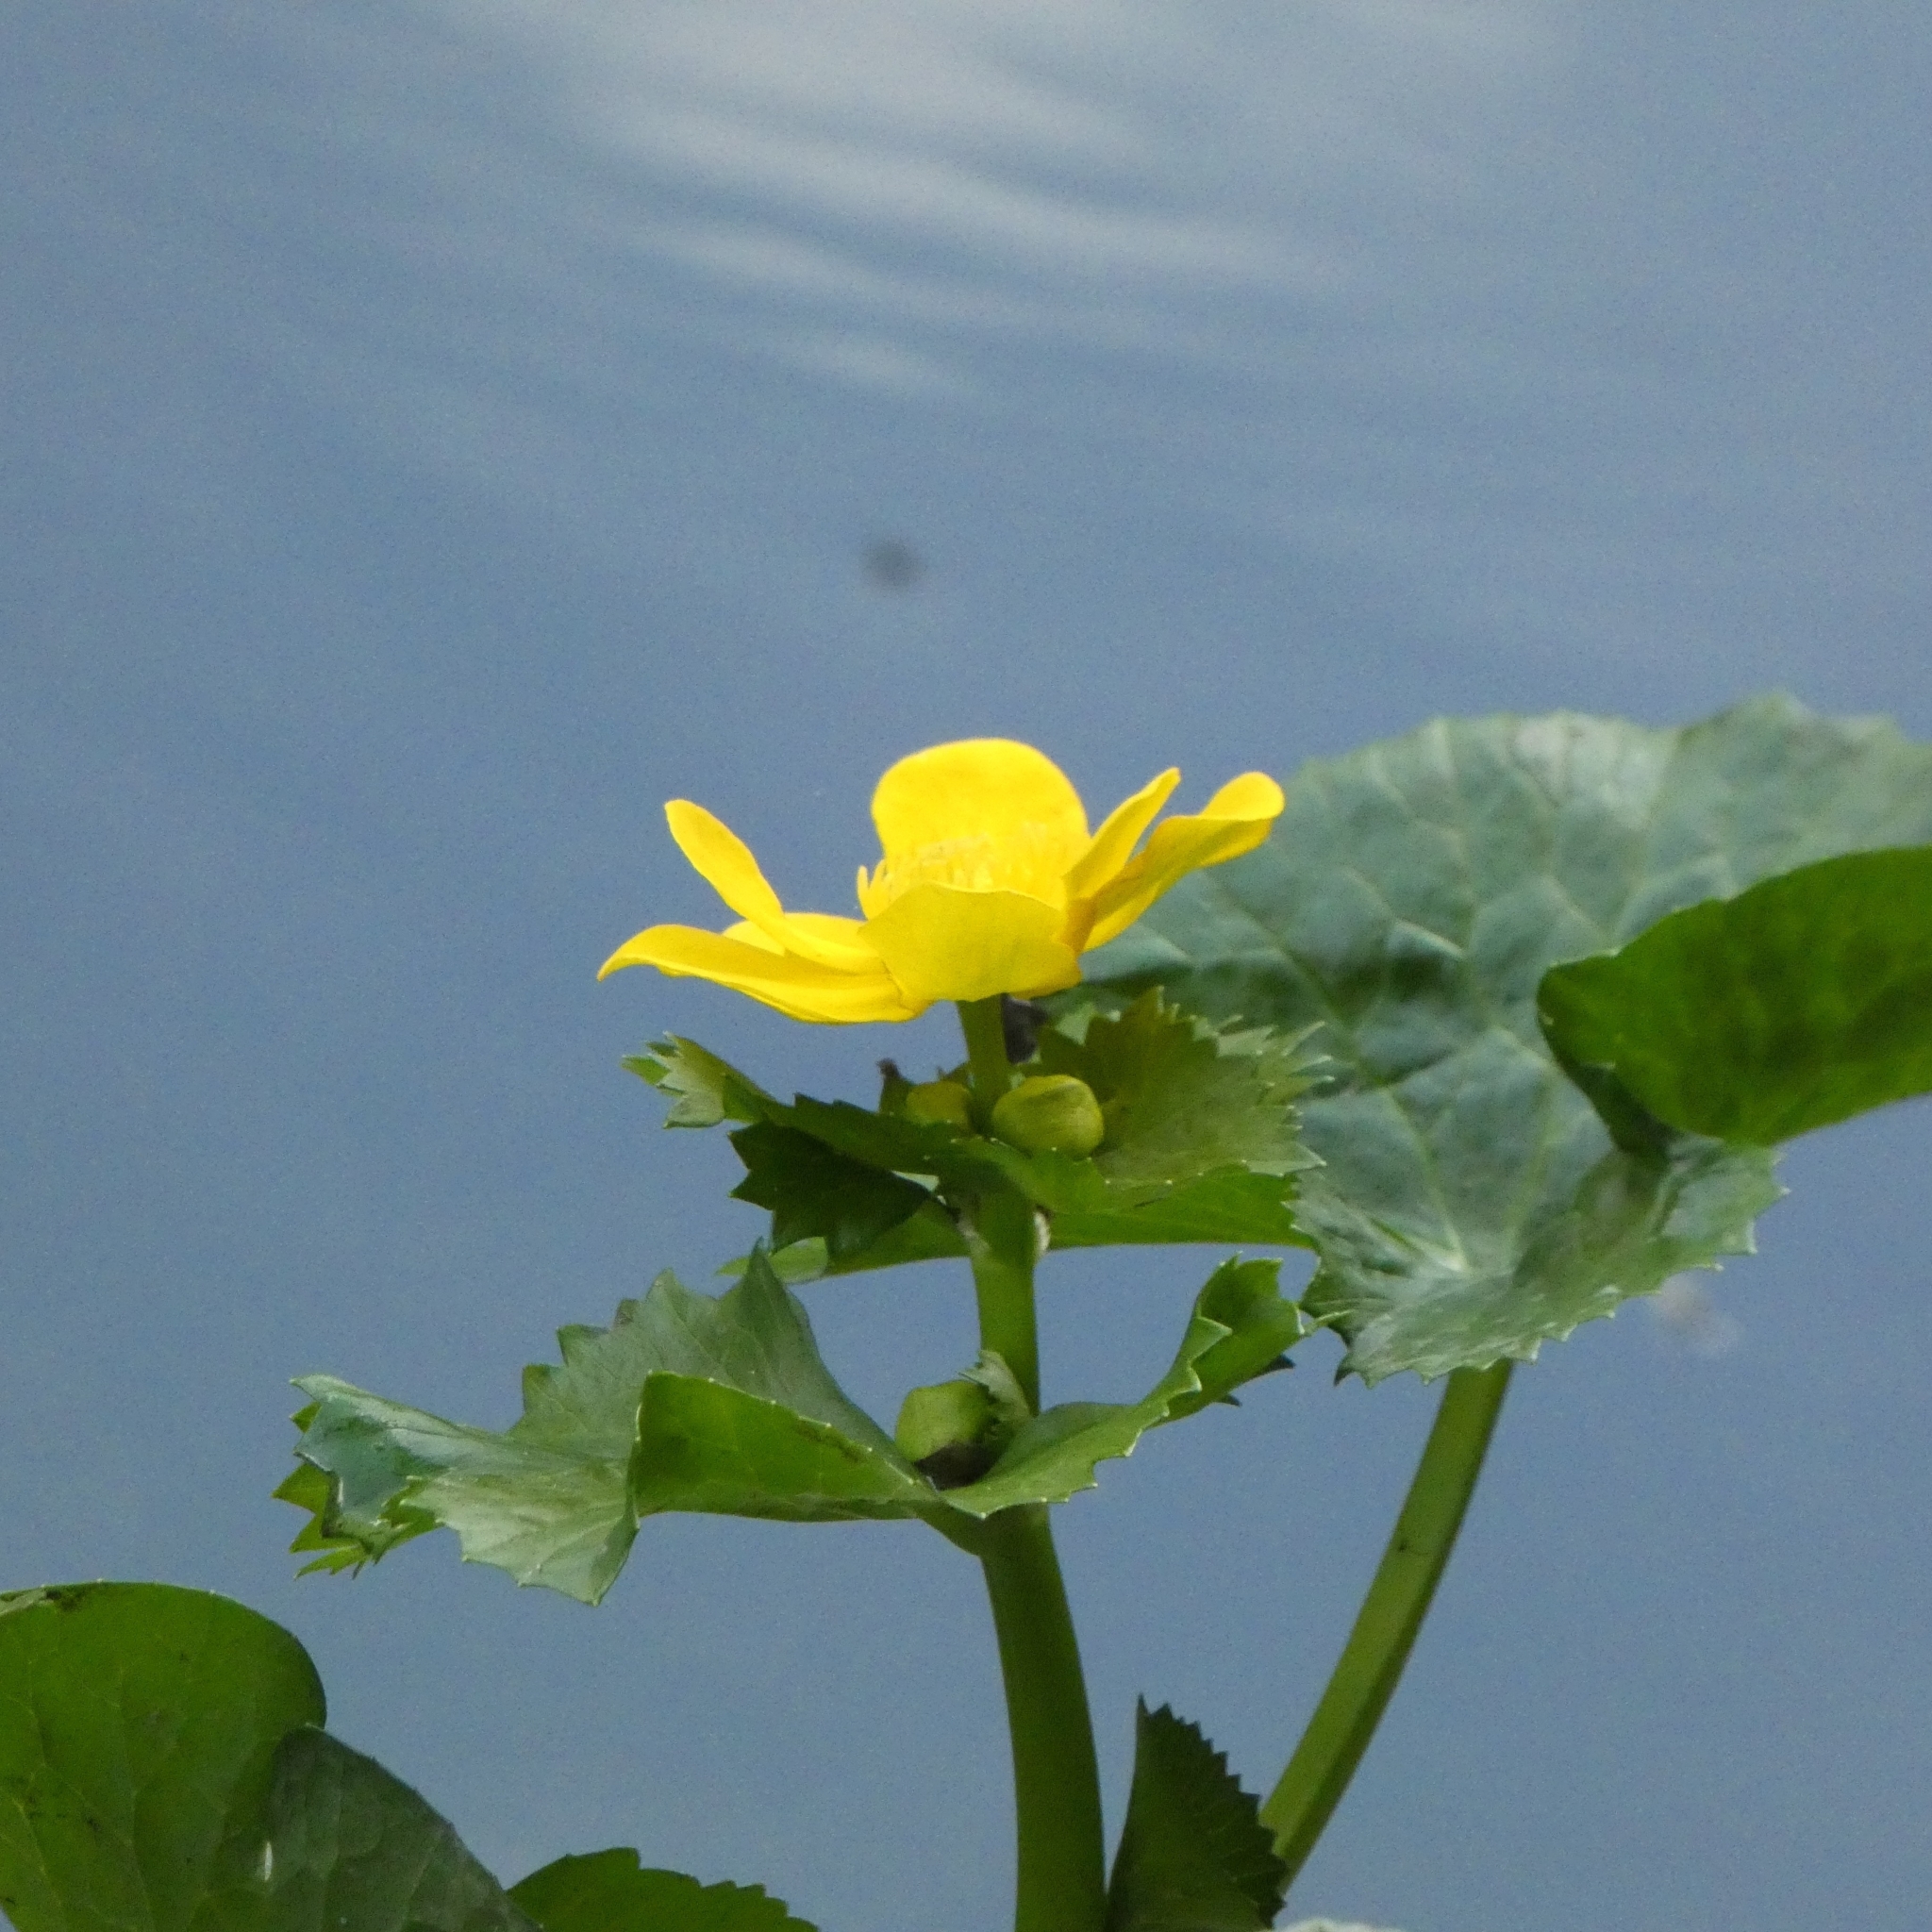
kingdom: Plantae
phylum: Tracheophyta
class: Magnoliopsida
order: Ranunculales
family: Ranunculaceae
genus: Caltha
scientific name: Caltha palustris
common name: Marsh marigold
